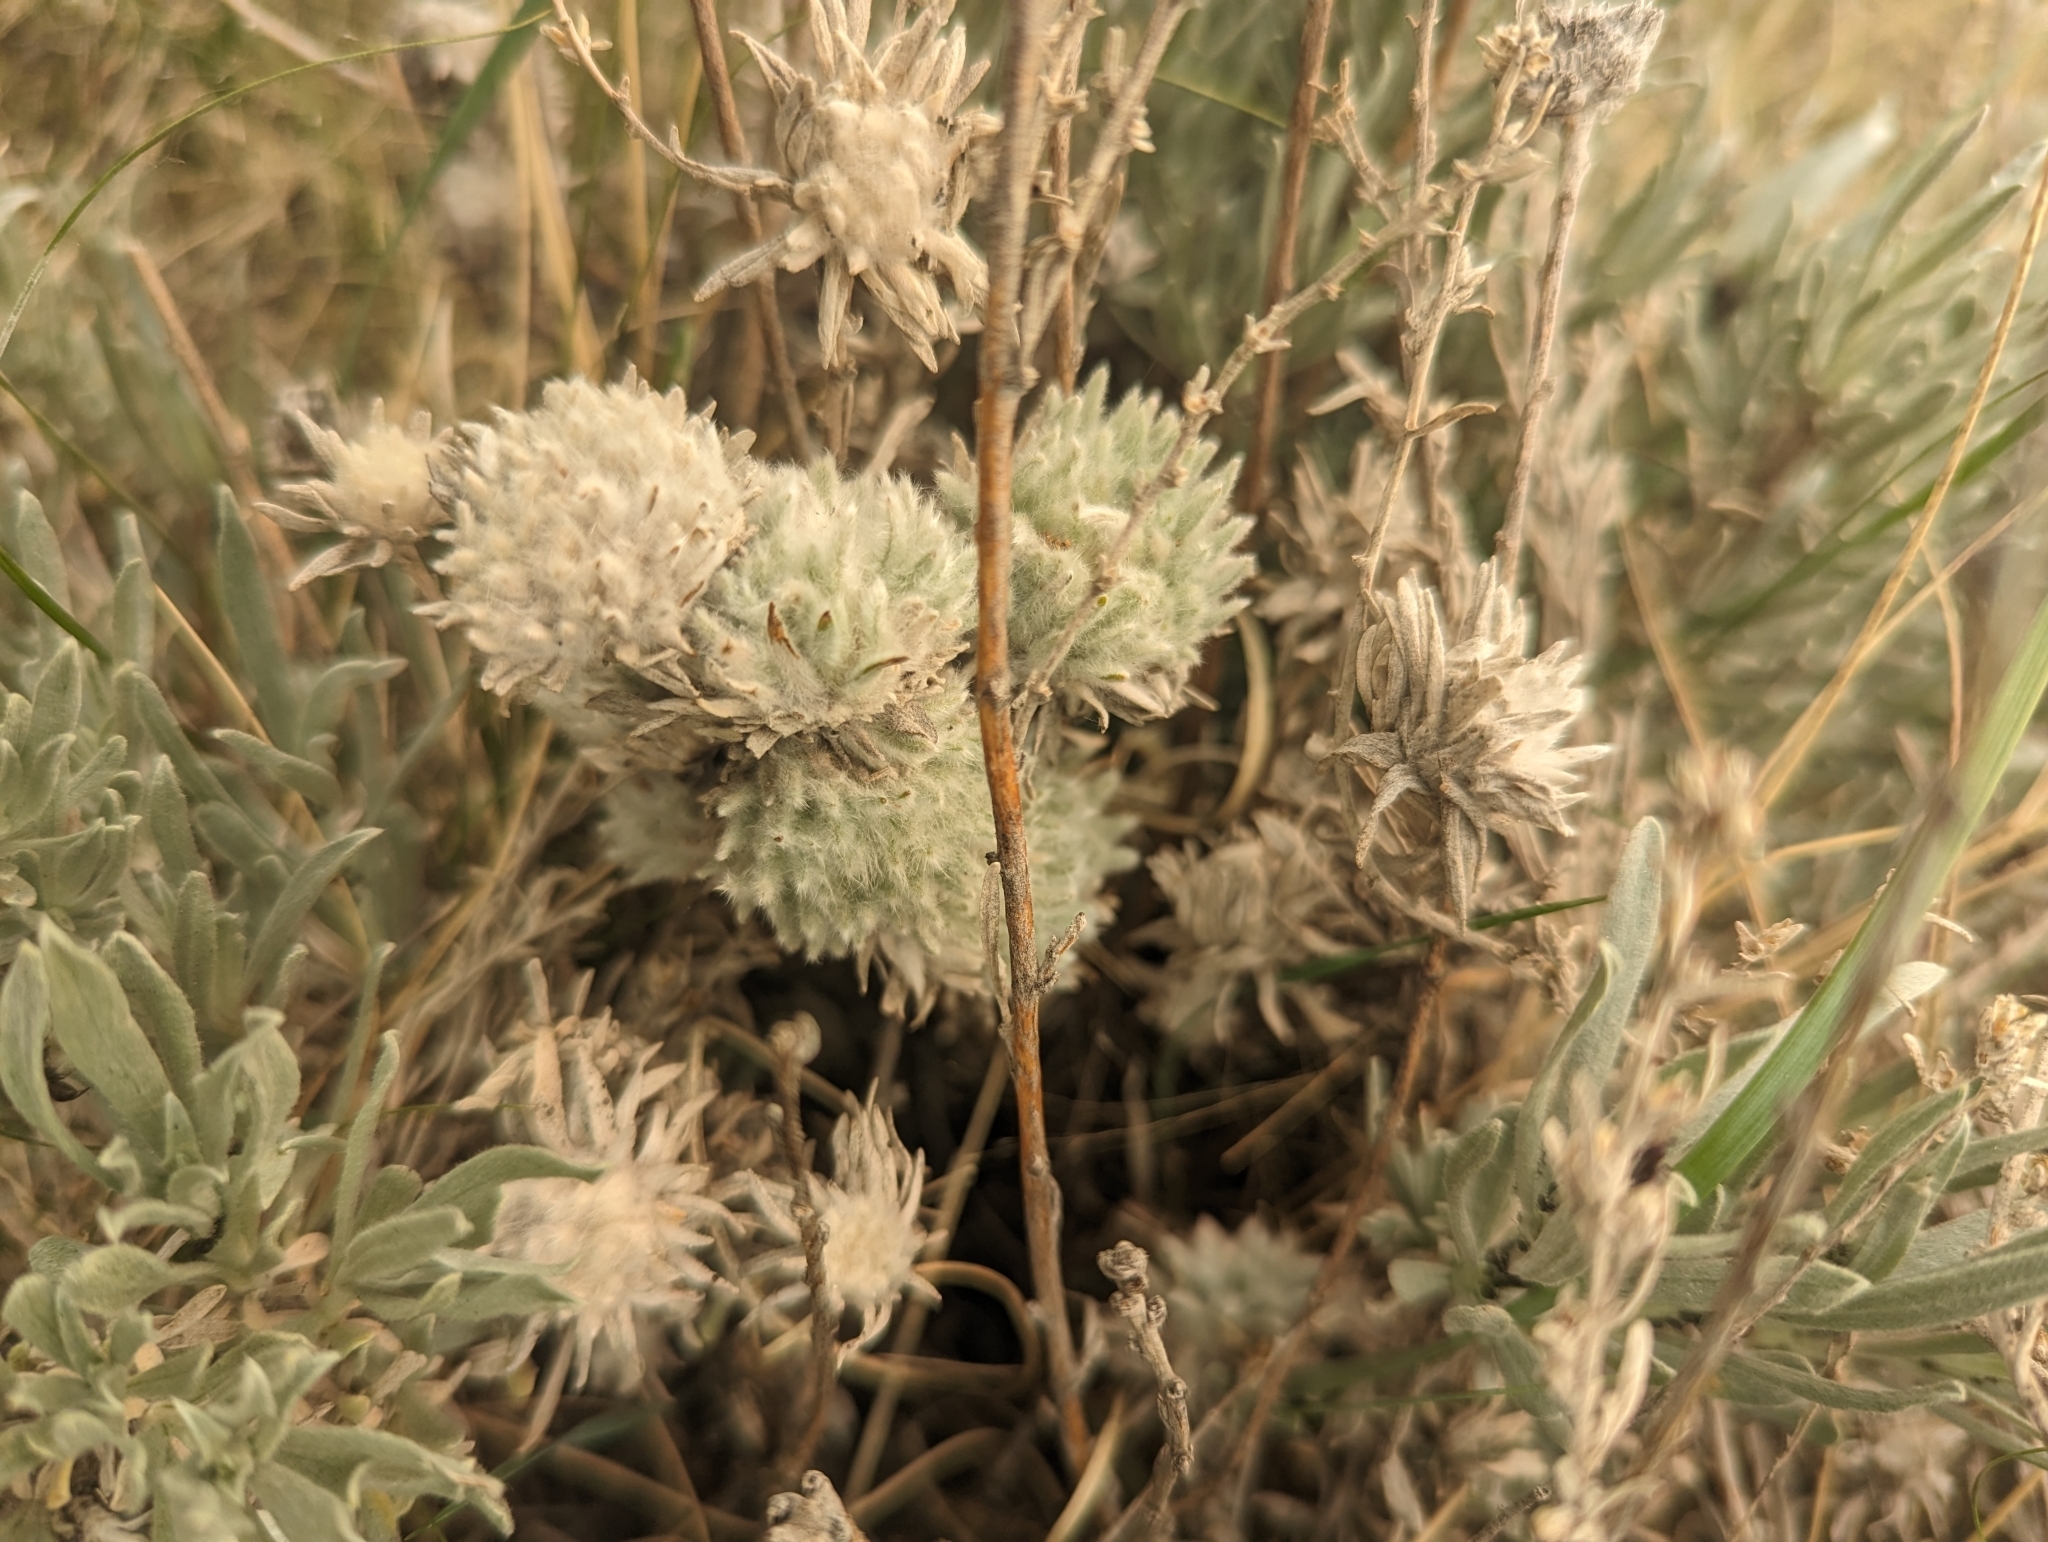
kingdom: Plantae
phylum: Tracheophyta
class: Magnoliopsida
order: Caryophyllales
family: Amaranthaceae
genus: Krascheninnikovia
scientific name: Krascheninnikovia lanata
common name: Winterfat
